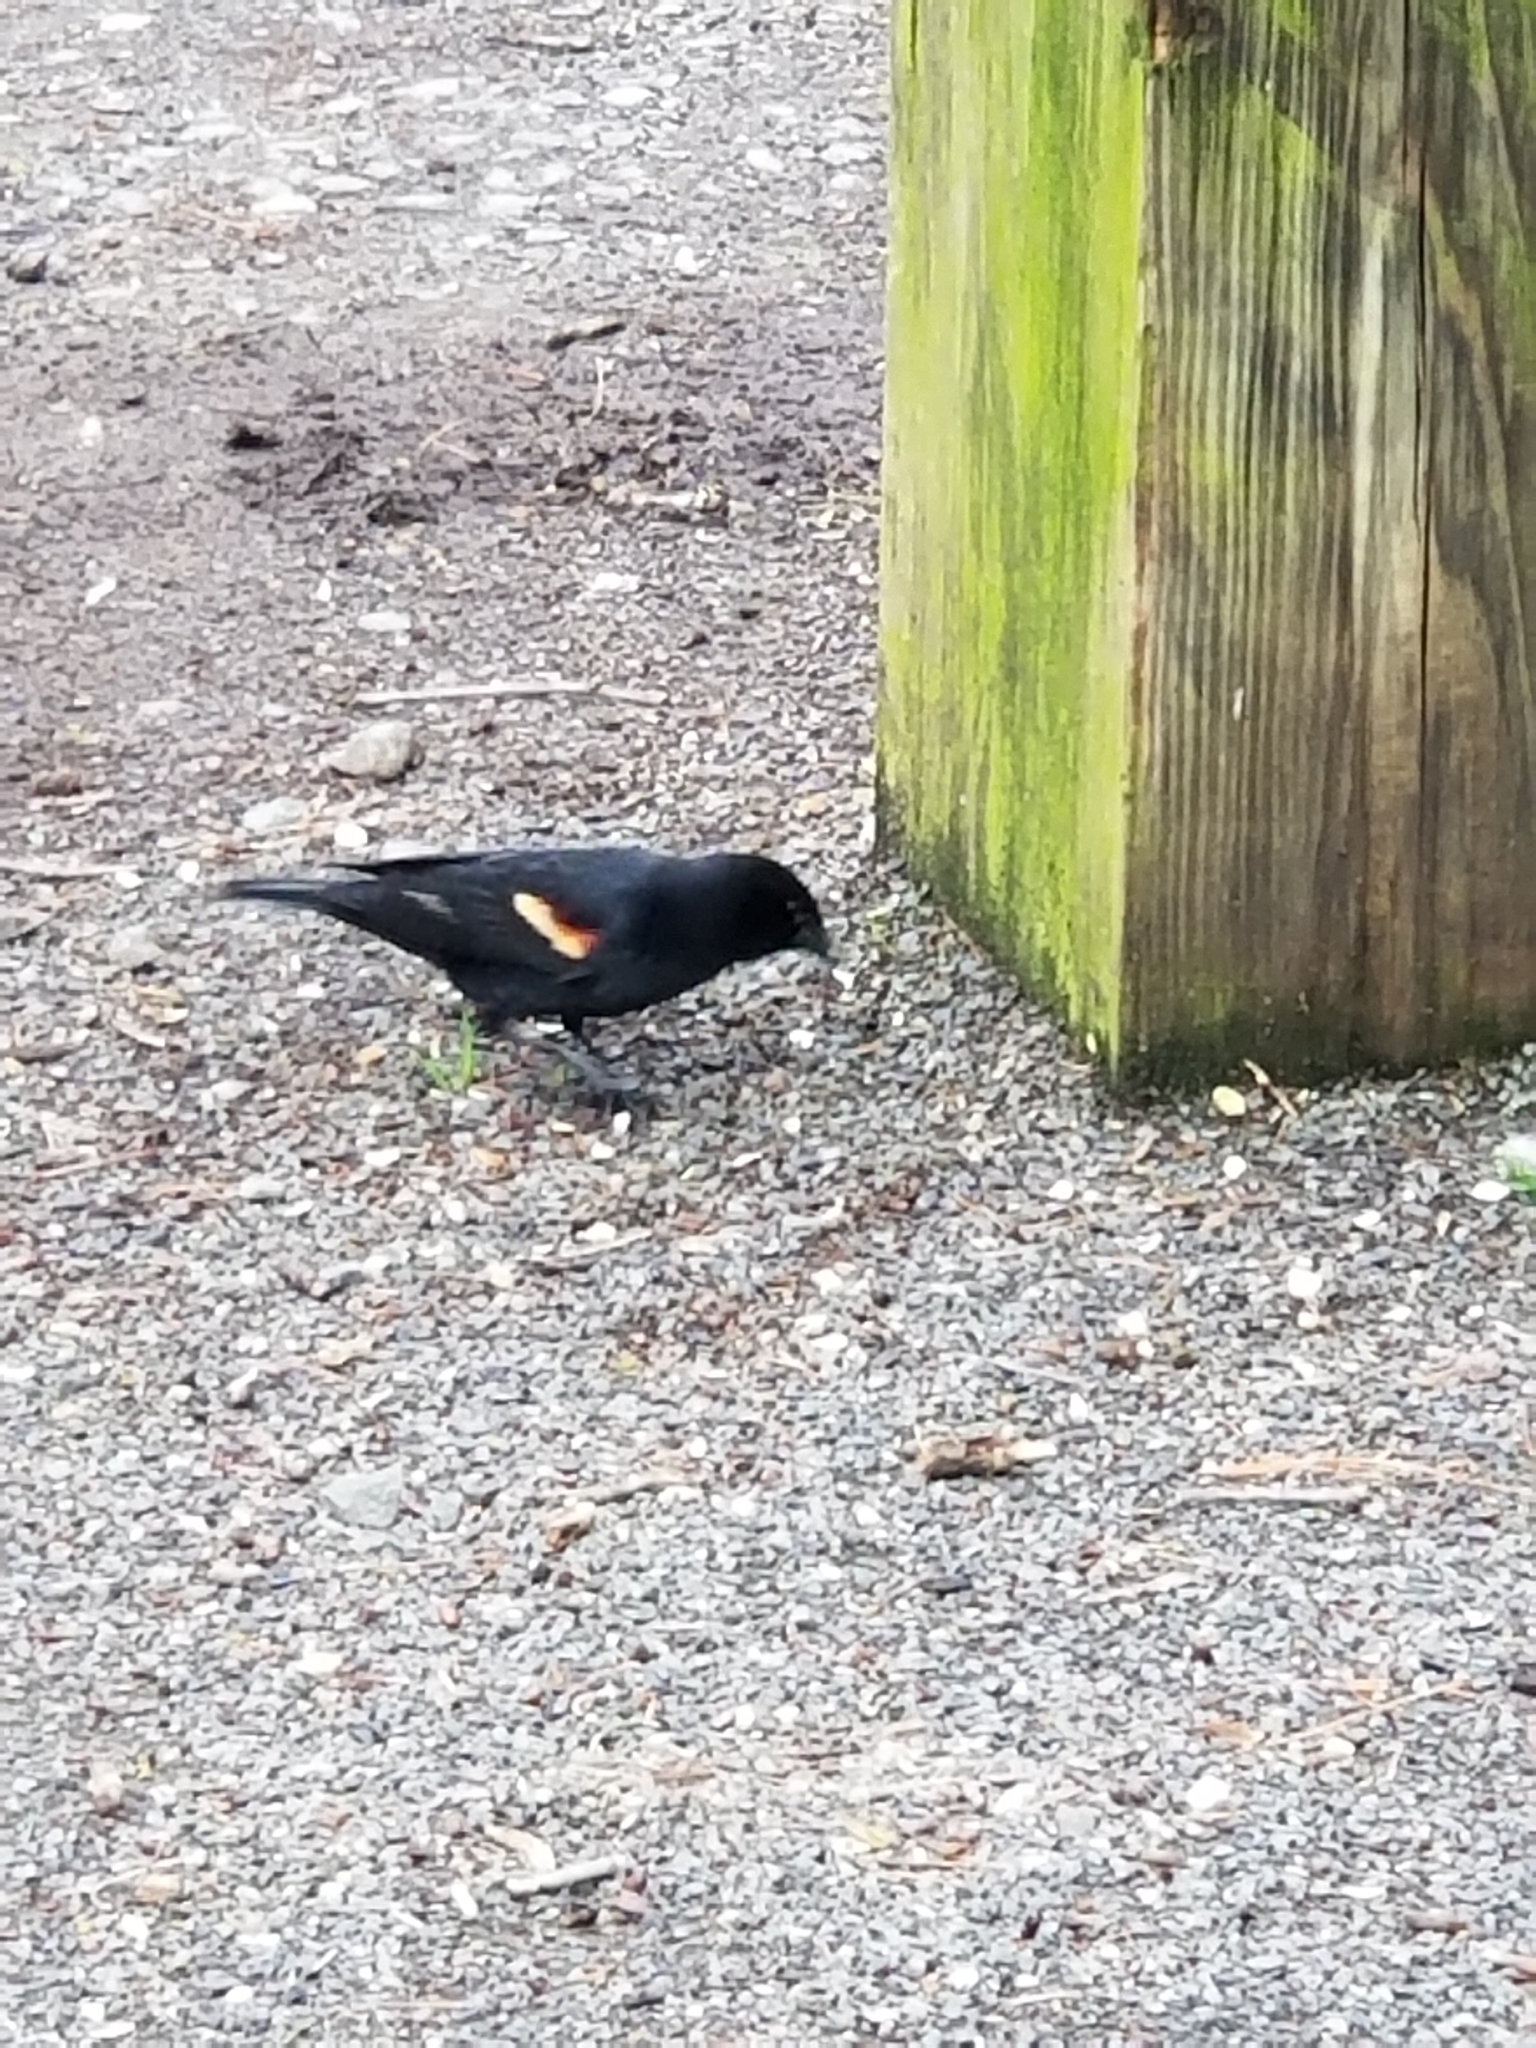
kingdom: Animalia
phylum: Chordata
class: Aves
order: Passeriformes
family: Icteridae
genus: Agelaius
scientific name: Agelaius phoeniceus
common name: Red-winged blackbird
